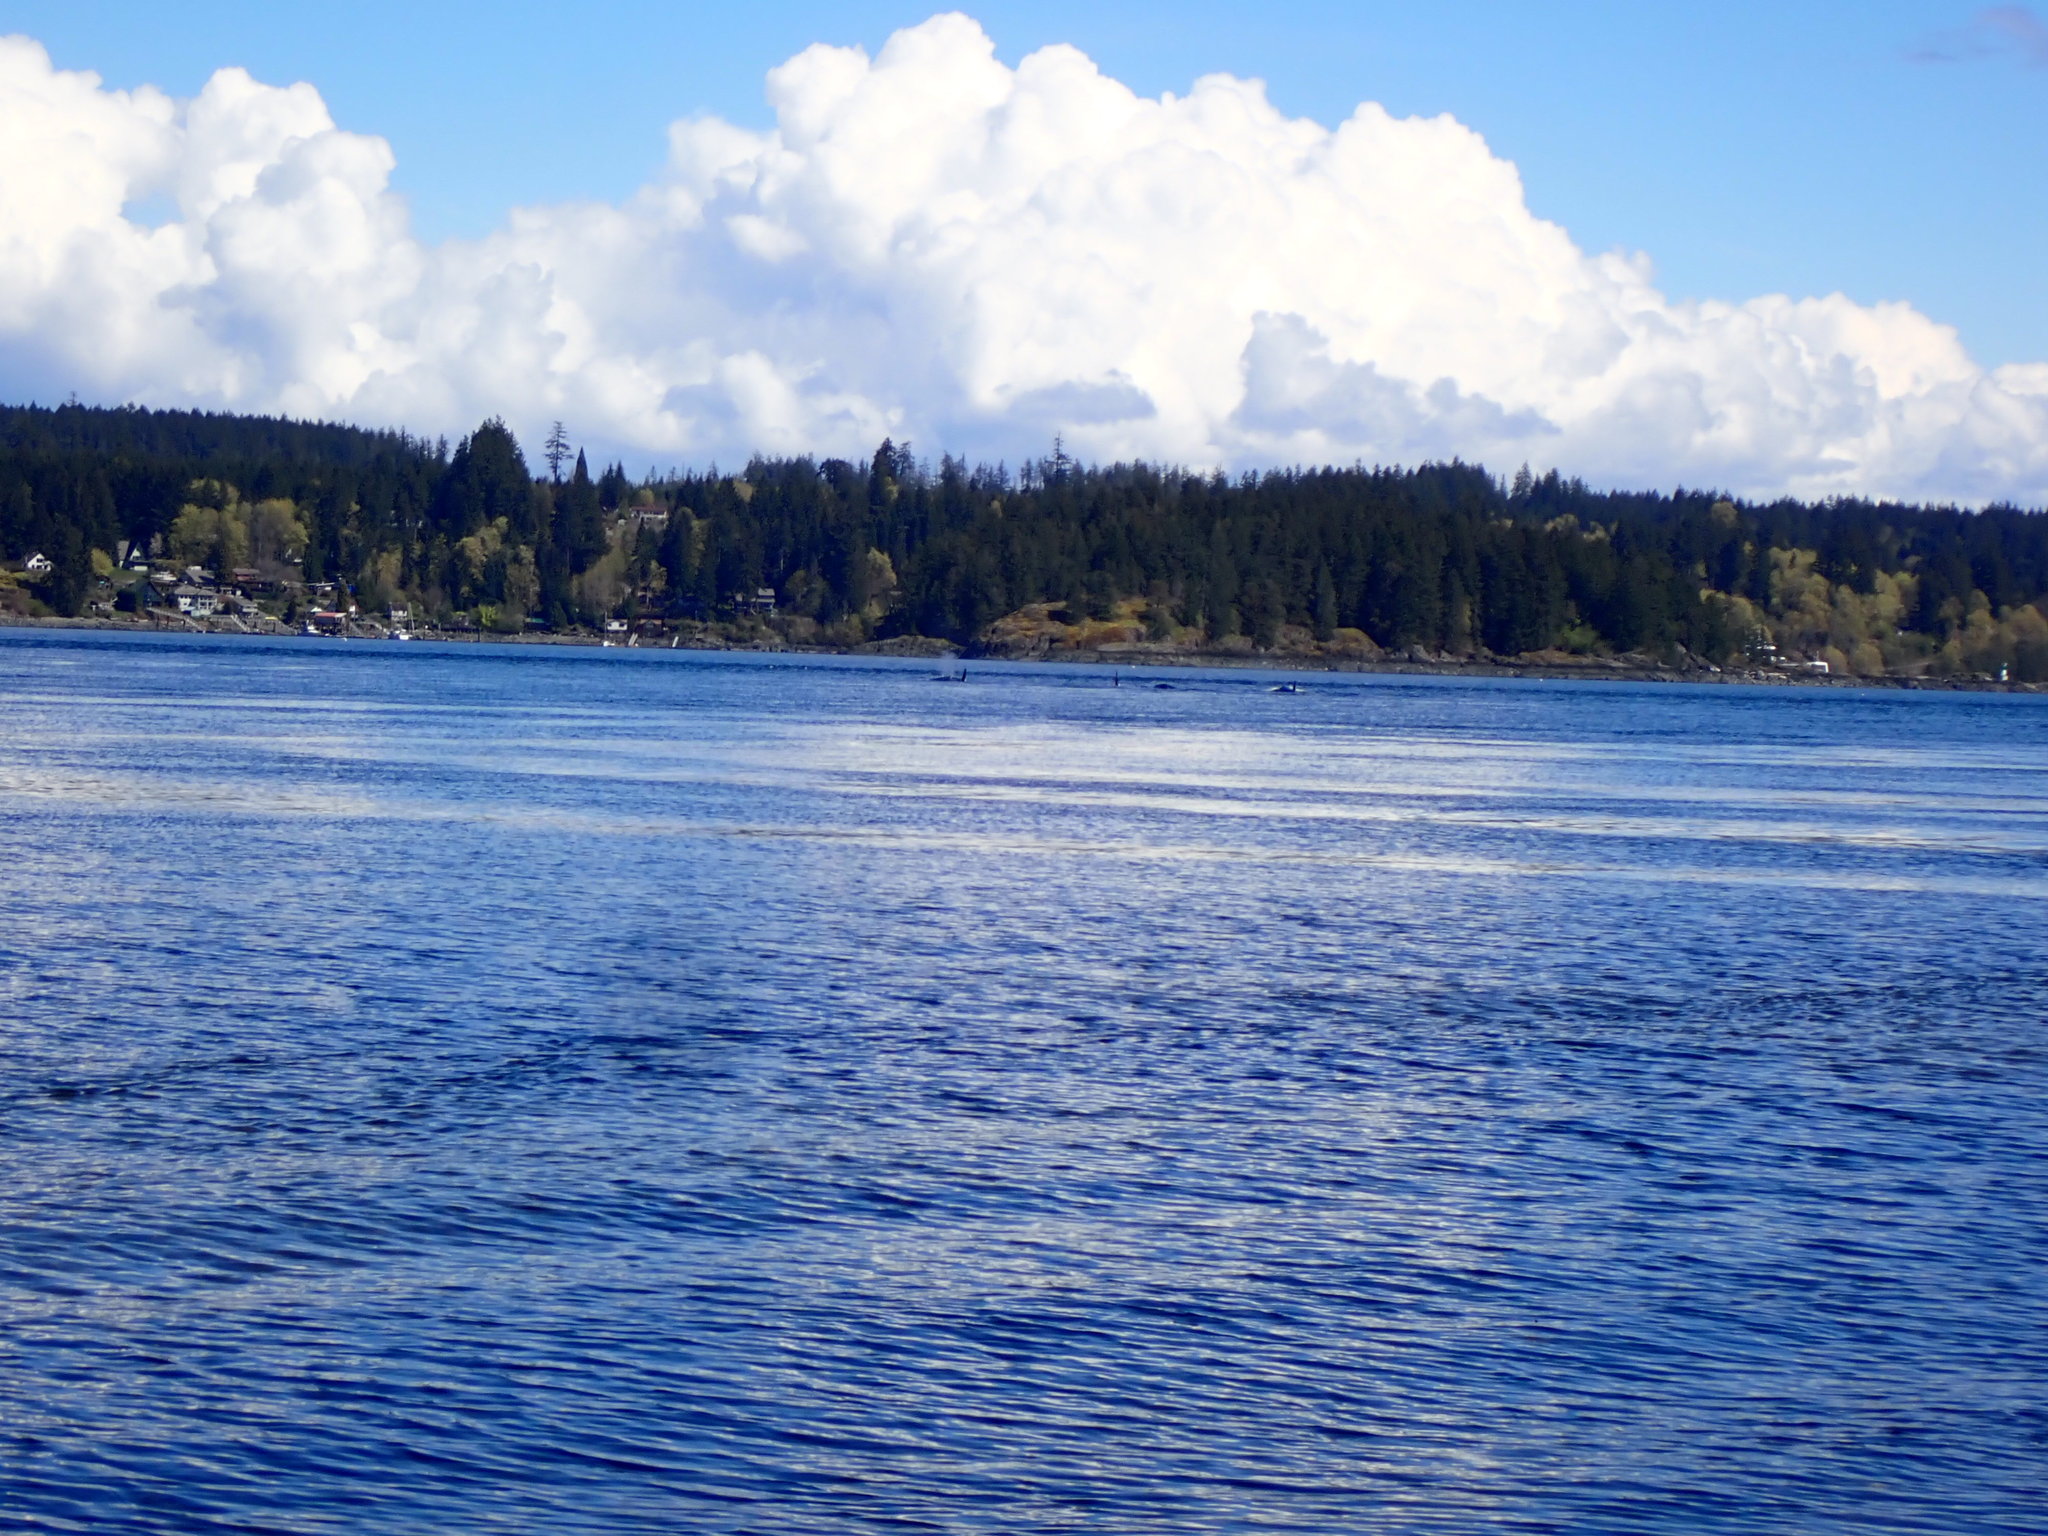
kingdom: Animalia
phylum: Chordata
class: Mammalia
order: Cetacea
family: Delphinidae
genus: Orcinus
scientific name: Orcinus orca
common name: Killer whale
